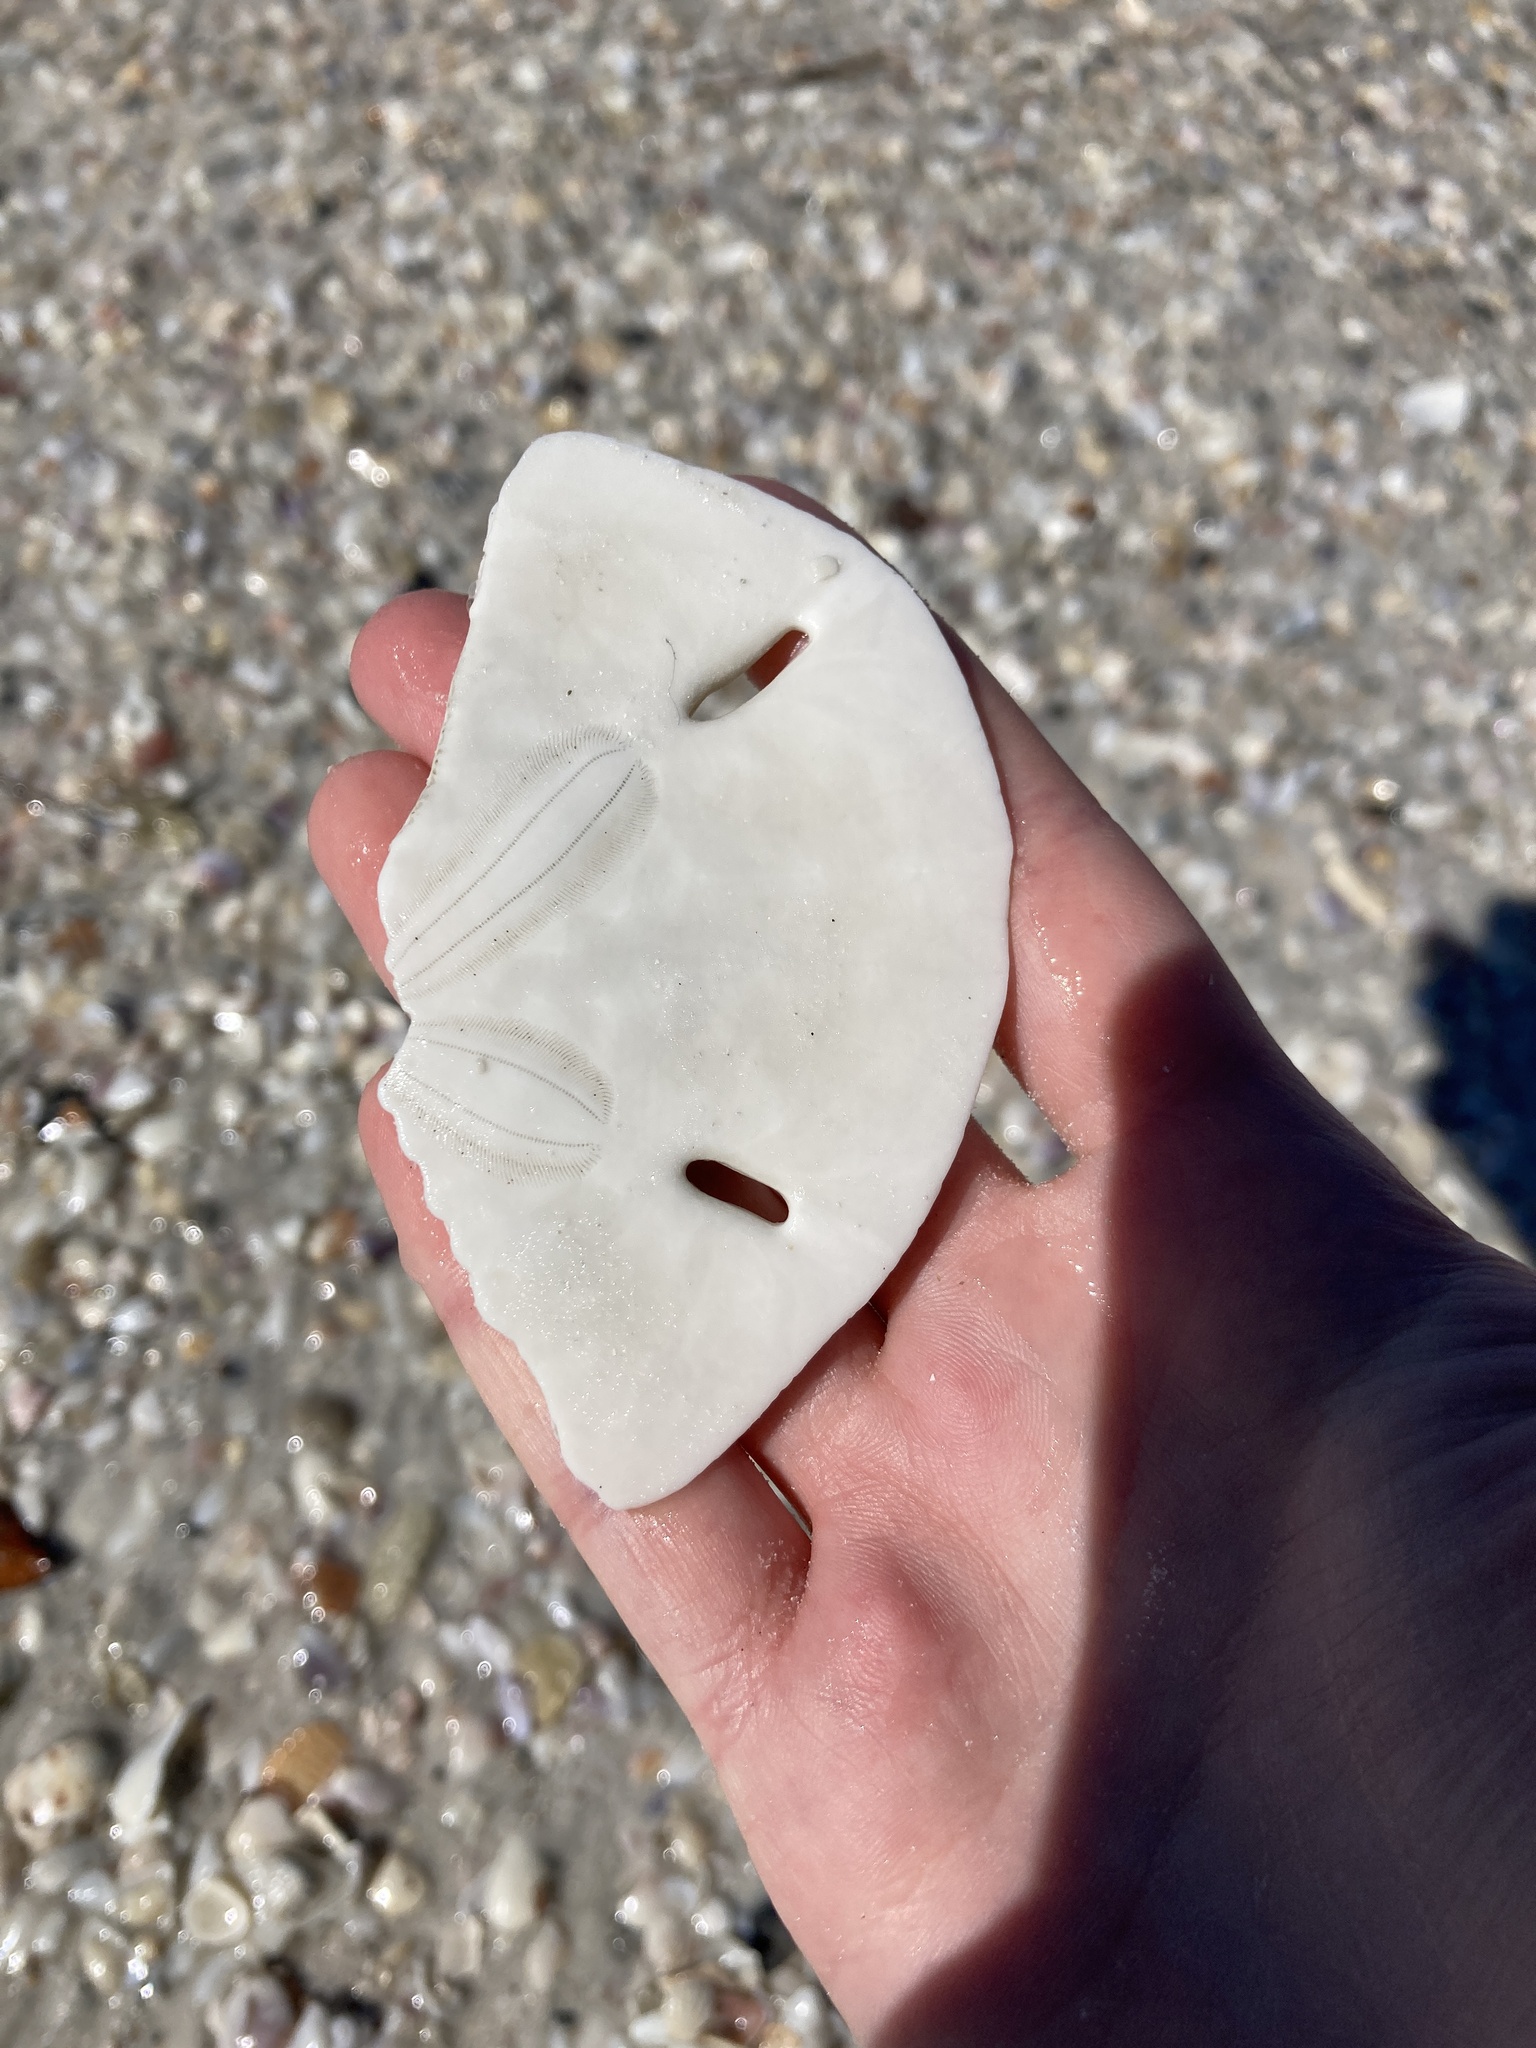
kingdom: Animalia
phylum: Echinodermata
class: Echinoidea
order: Echinolampadacea
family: Mellitidae
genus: Mellita
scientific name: Mellita tenuis
